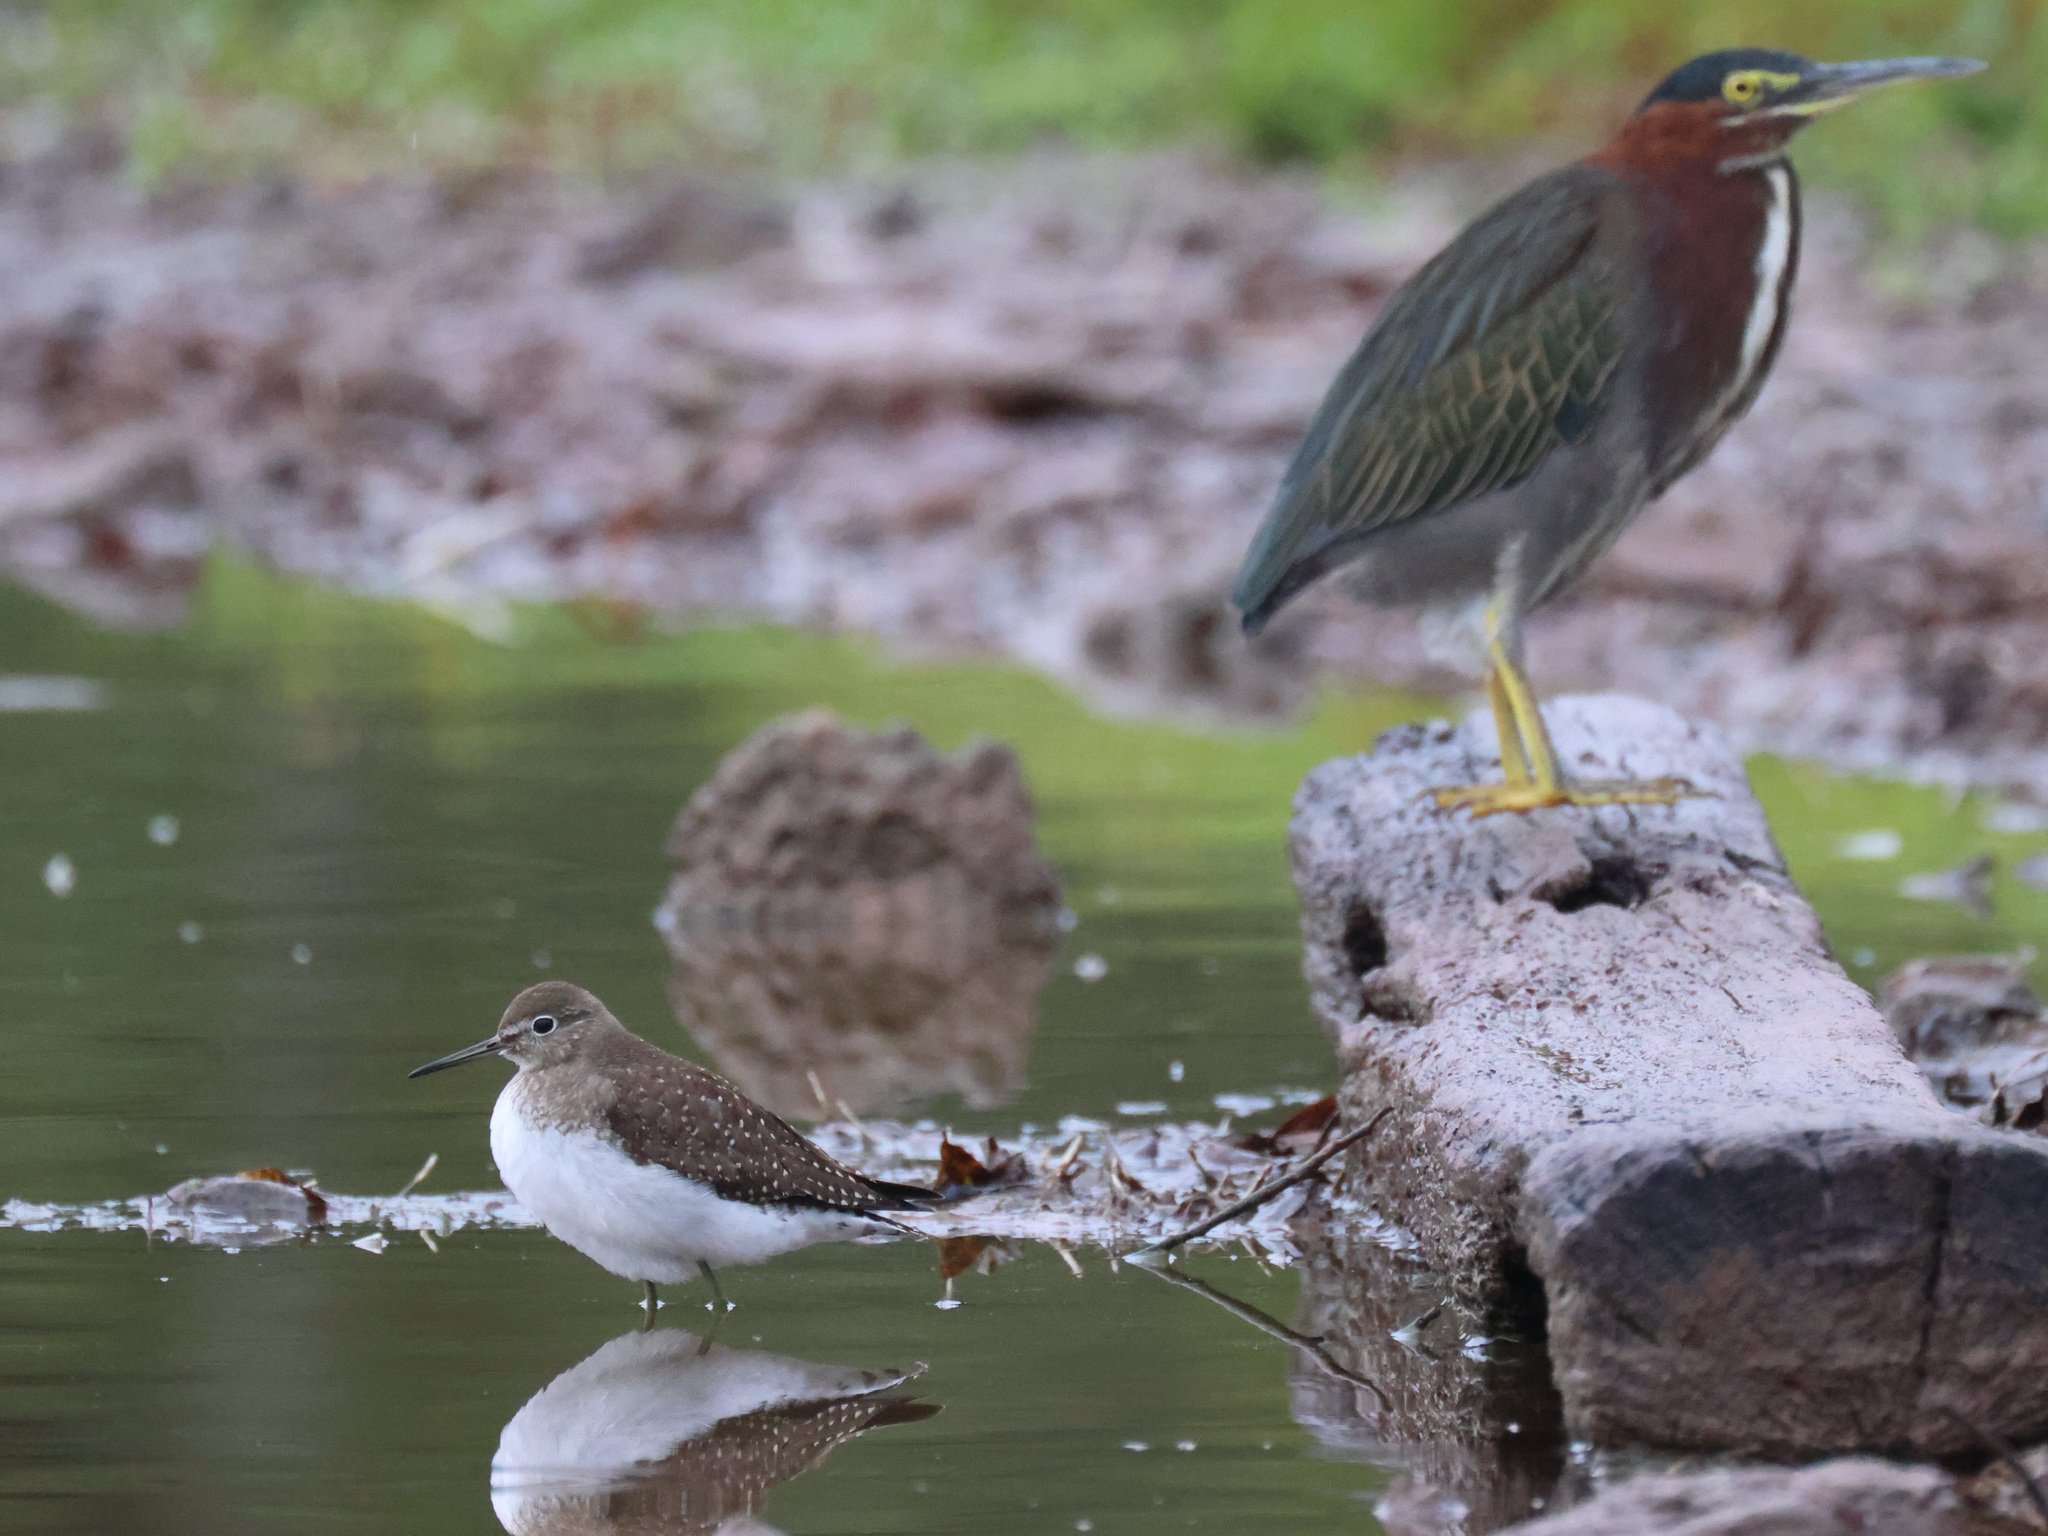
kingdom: Animalia
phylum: Chordata
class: Aves
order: Charadriiformes
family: Scolopacidae
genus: Tringa
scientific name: Tringa solitaria
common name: Solitary sandpiper
